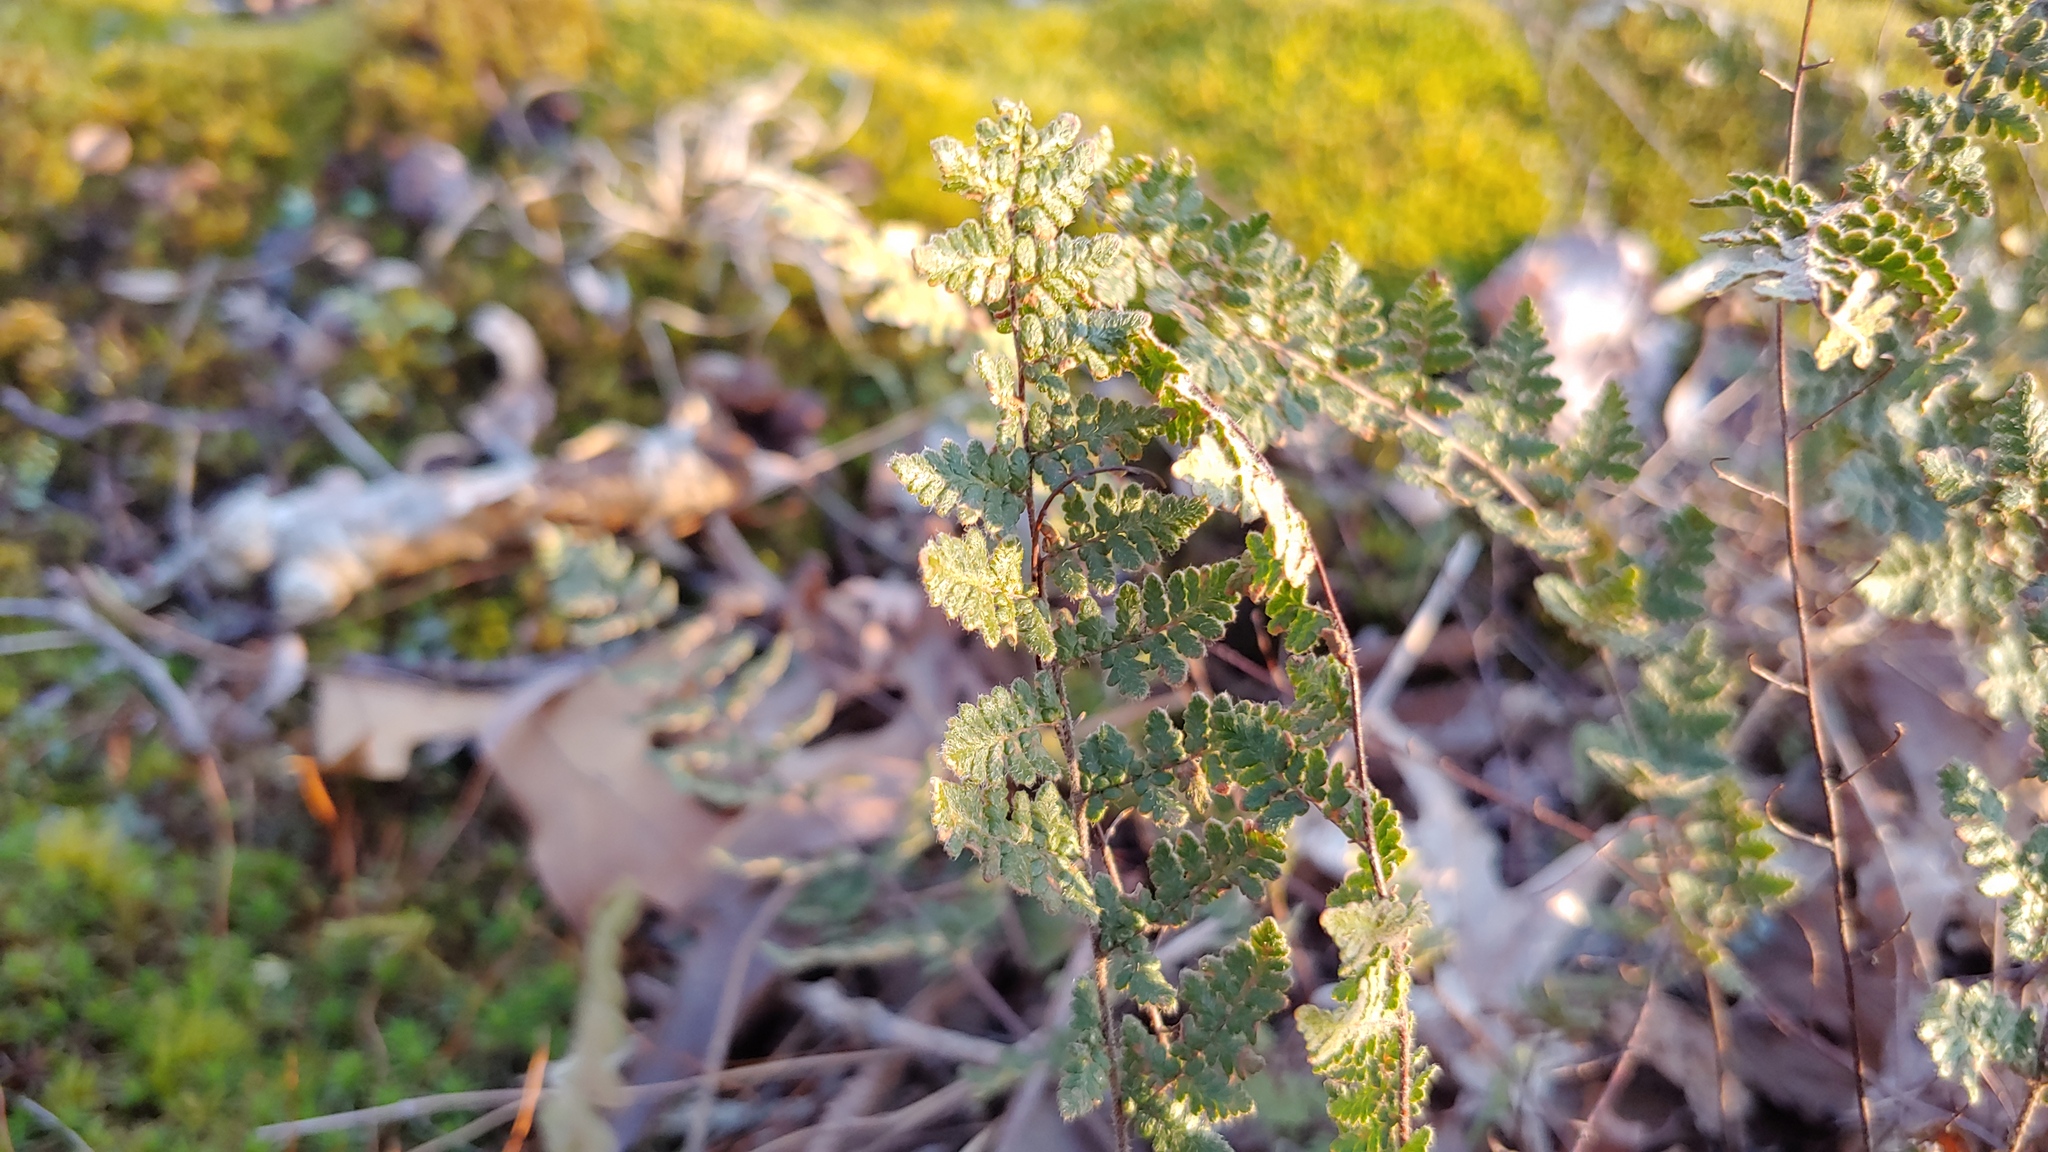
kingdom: Plantae
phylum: Tracheophyta
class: Polypodiopsida
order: Polypodiales
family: Pteridaceae
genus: Myriopteris
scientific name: Myriopteris lanosa
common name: Hairy lip fern
